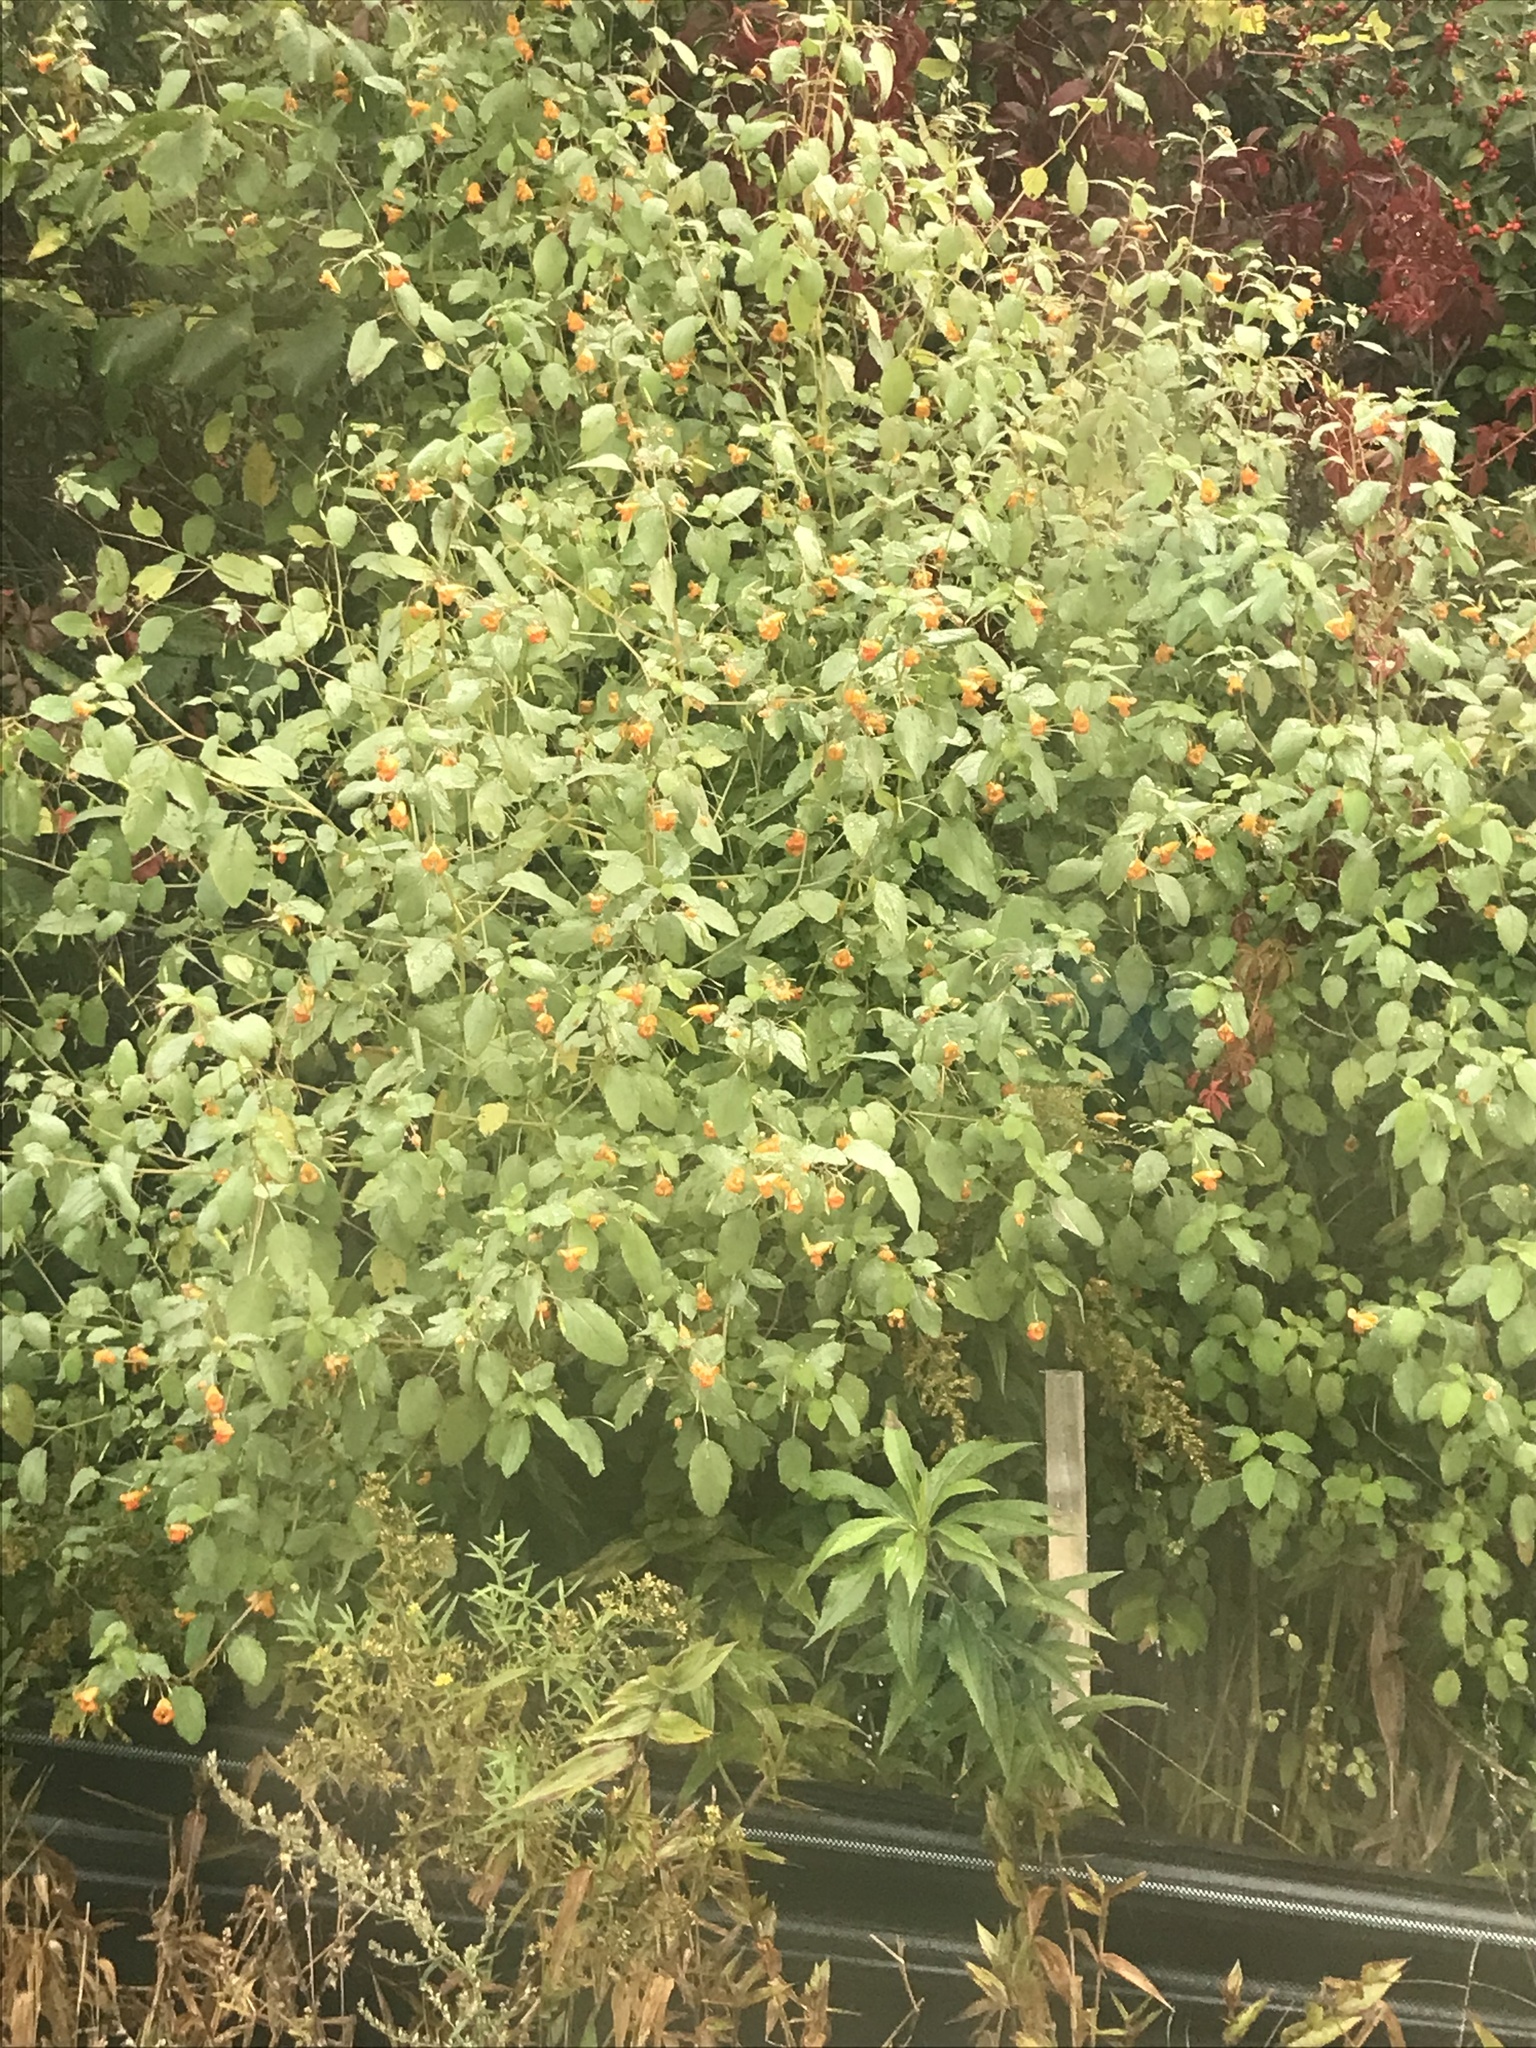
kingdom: Plantae
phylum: Tracheophyta
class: Magnoliopsida
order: Ericales
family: Balsaminaceae
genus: Impatiens
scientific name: Impatiens capensis
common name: Orange balsam
